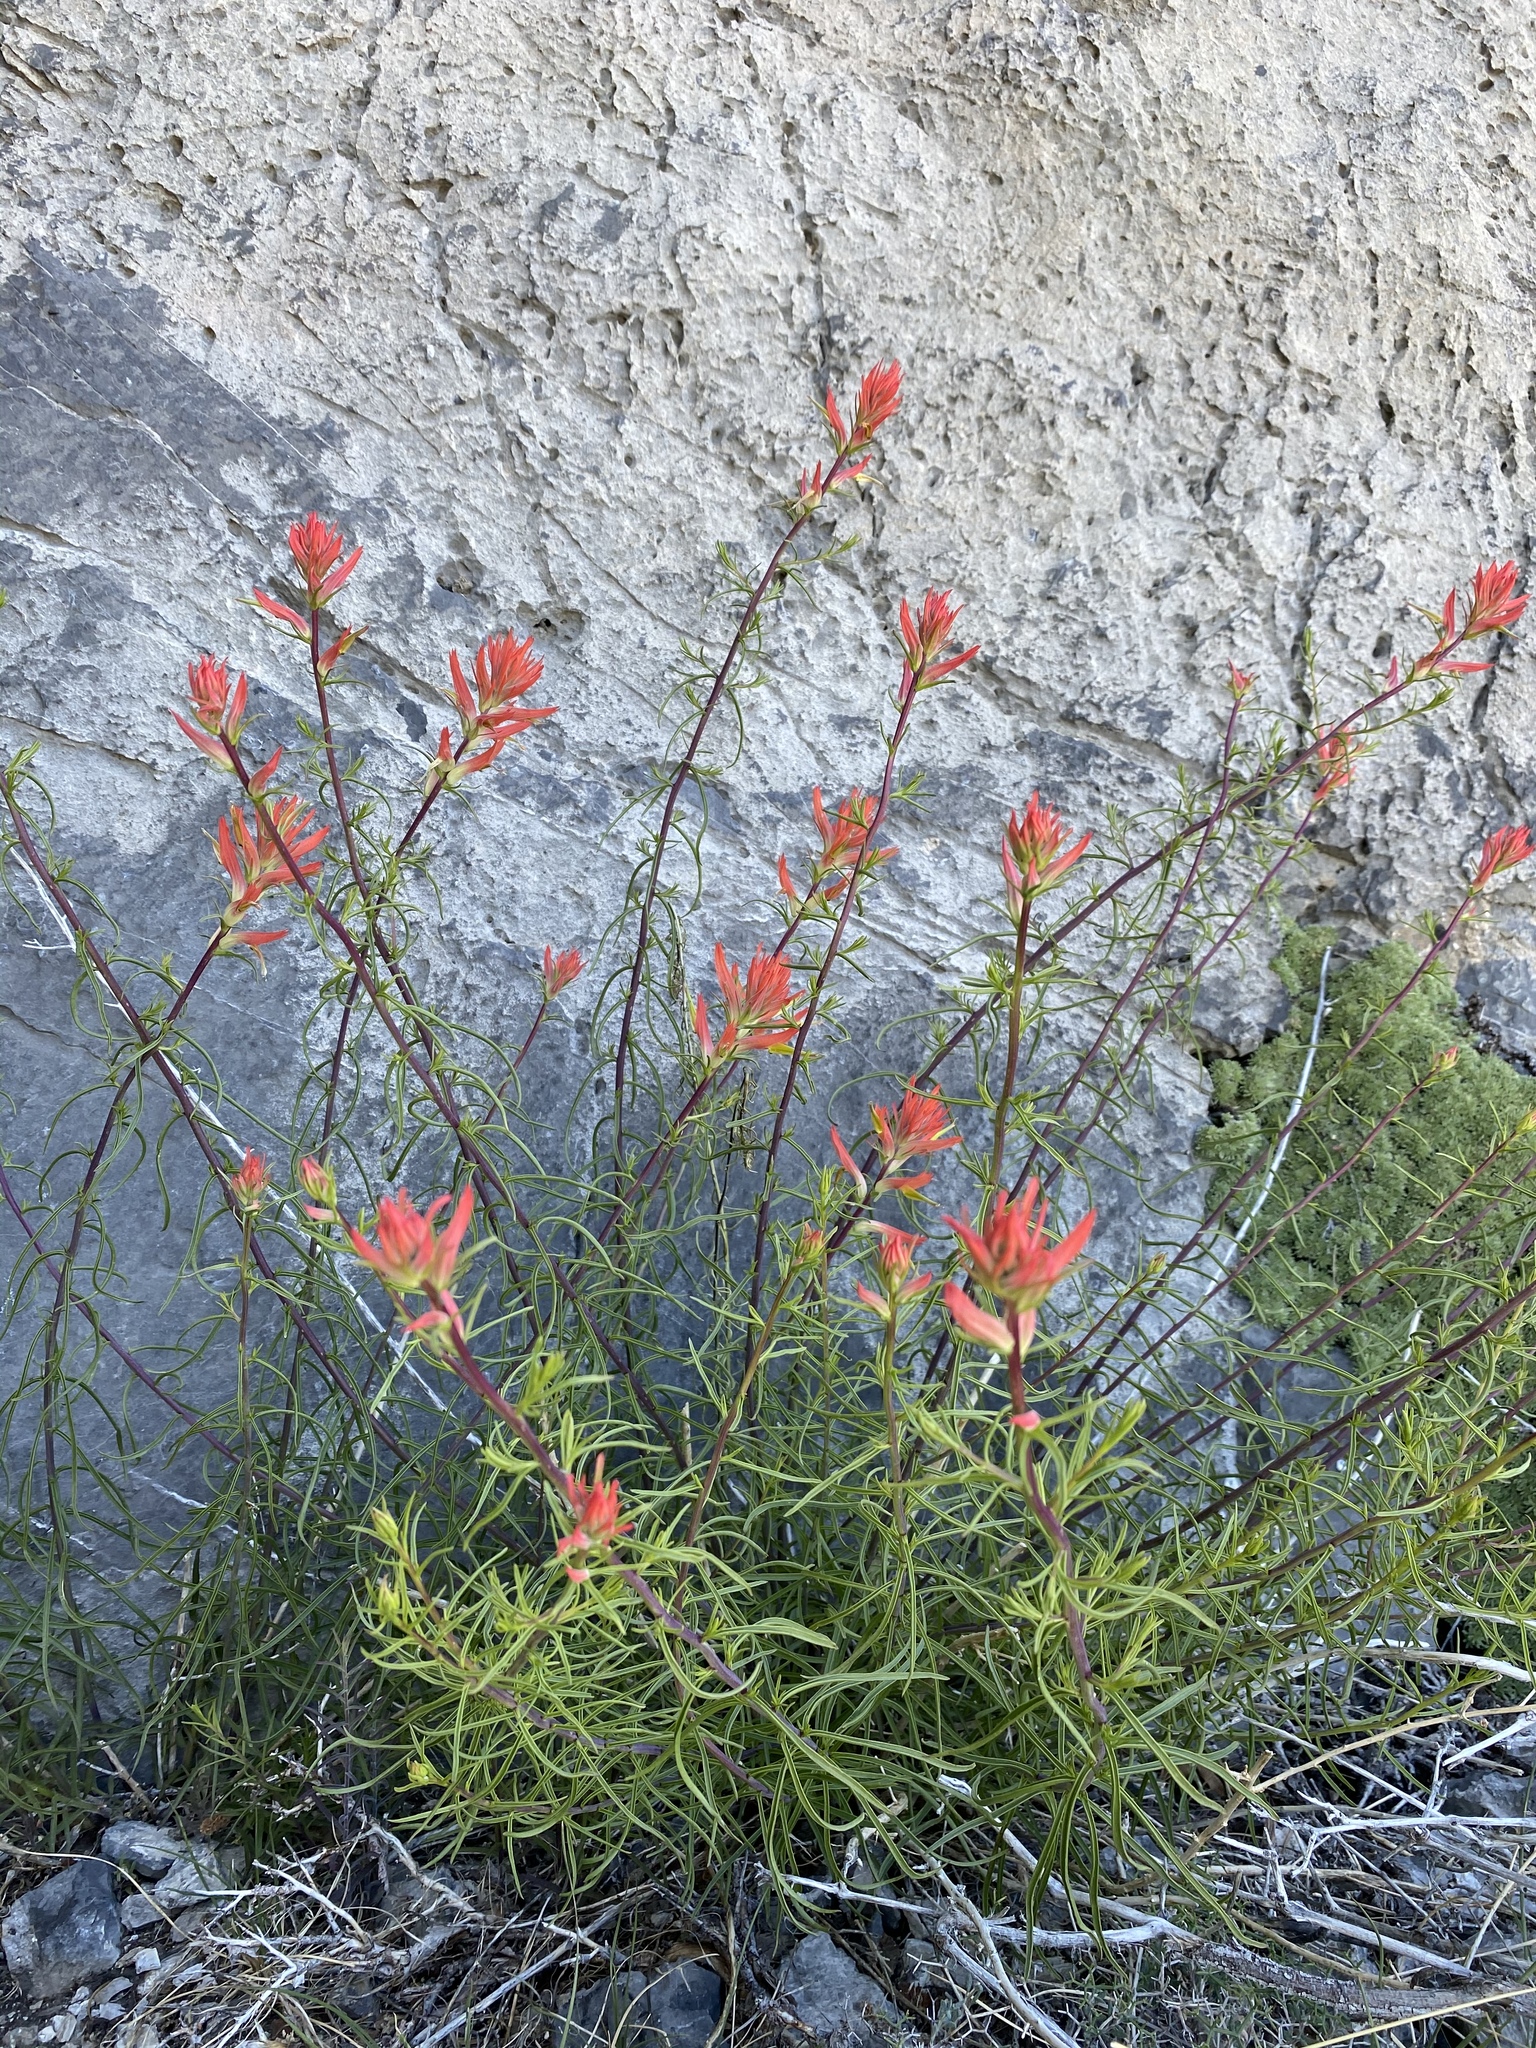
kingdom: Plantae
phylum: Tracheophyta
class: Magnoliopsida
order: Lamiales
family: Orobanchaceae
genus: Castilleja
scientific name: Castilleja linariifolia
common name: Wyoming paintbrush
